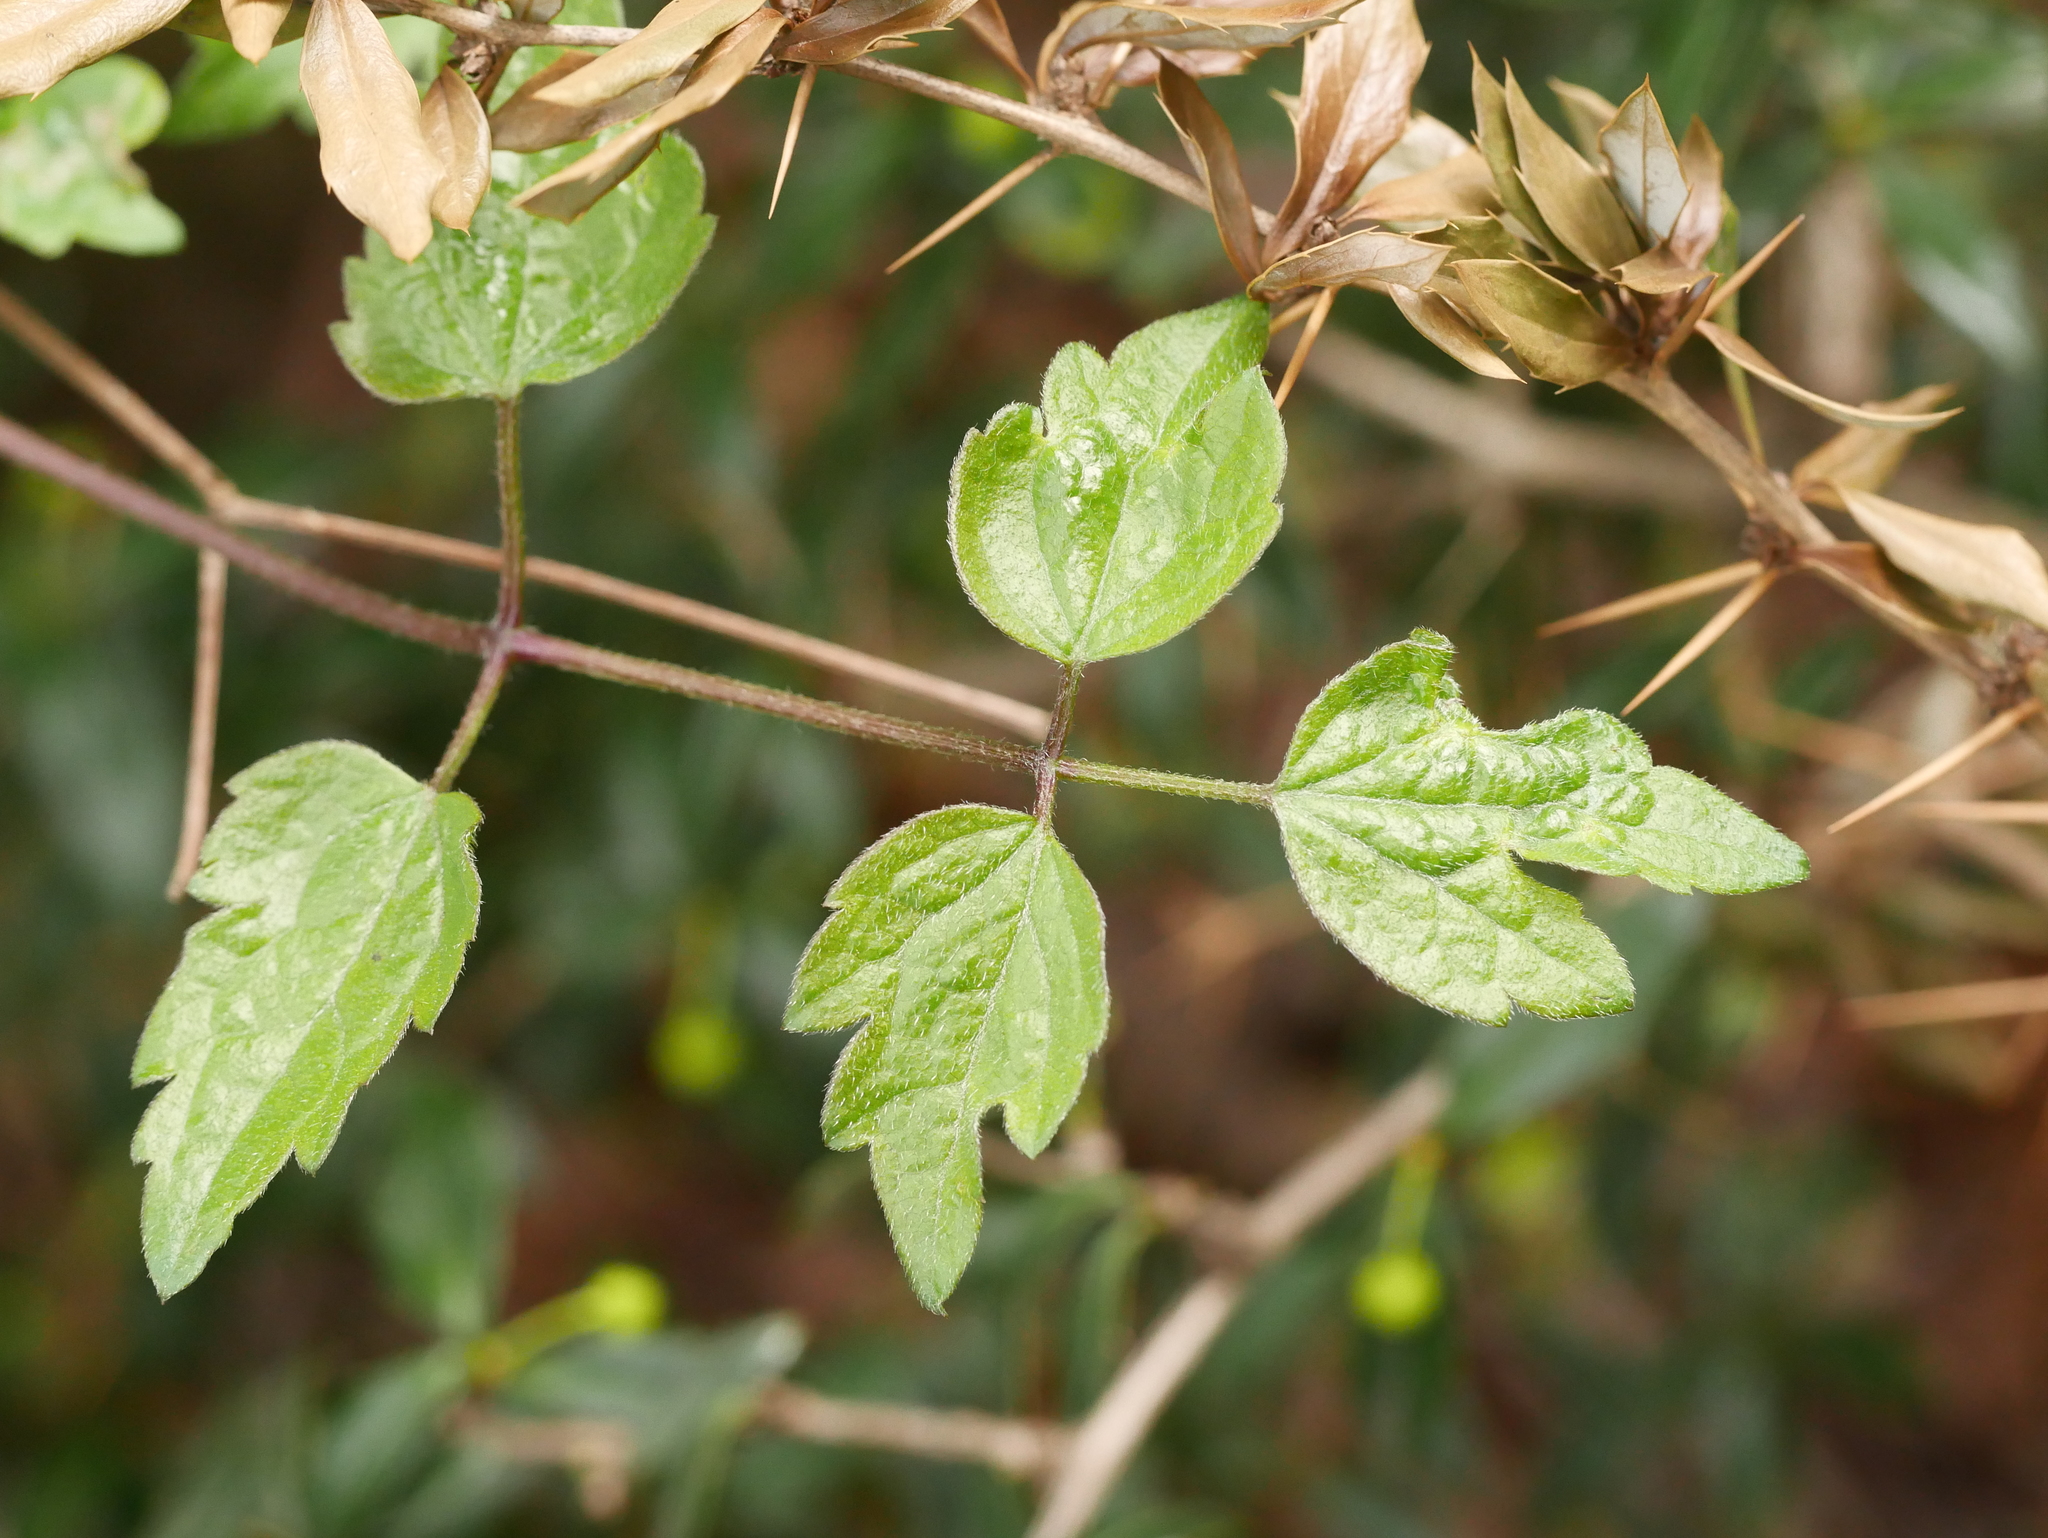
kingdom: Plantae
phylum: Tracheophyta
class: Magnoliopsida
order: Ranunculales
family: Ranunculaceae
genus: Clematis
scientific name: Clematis vitalba
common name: Evergreen clematis
